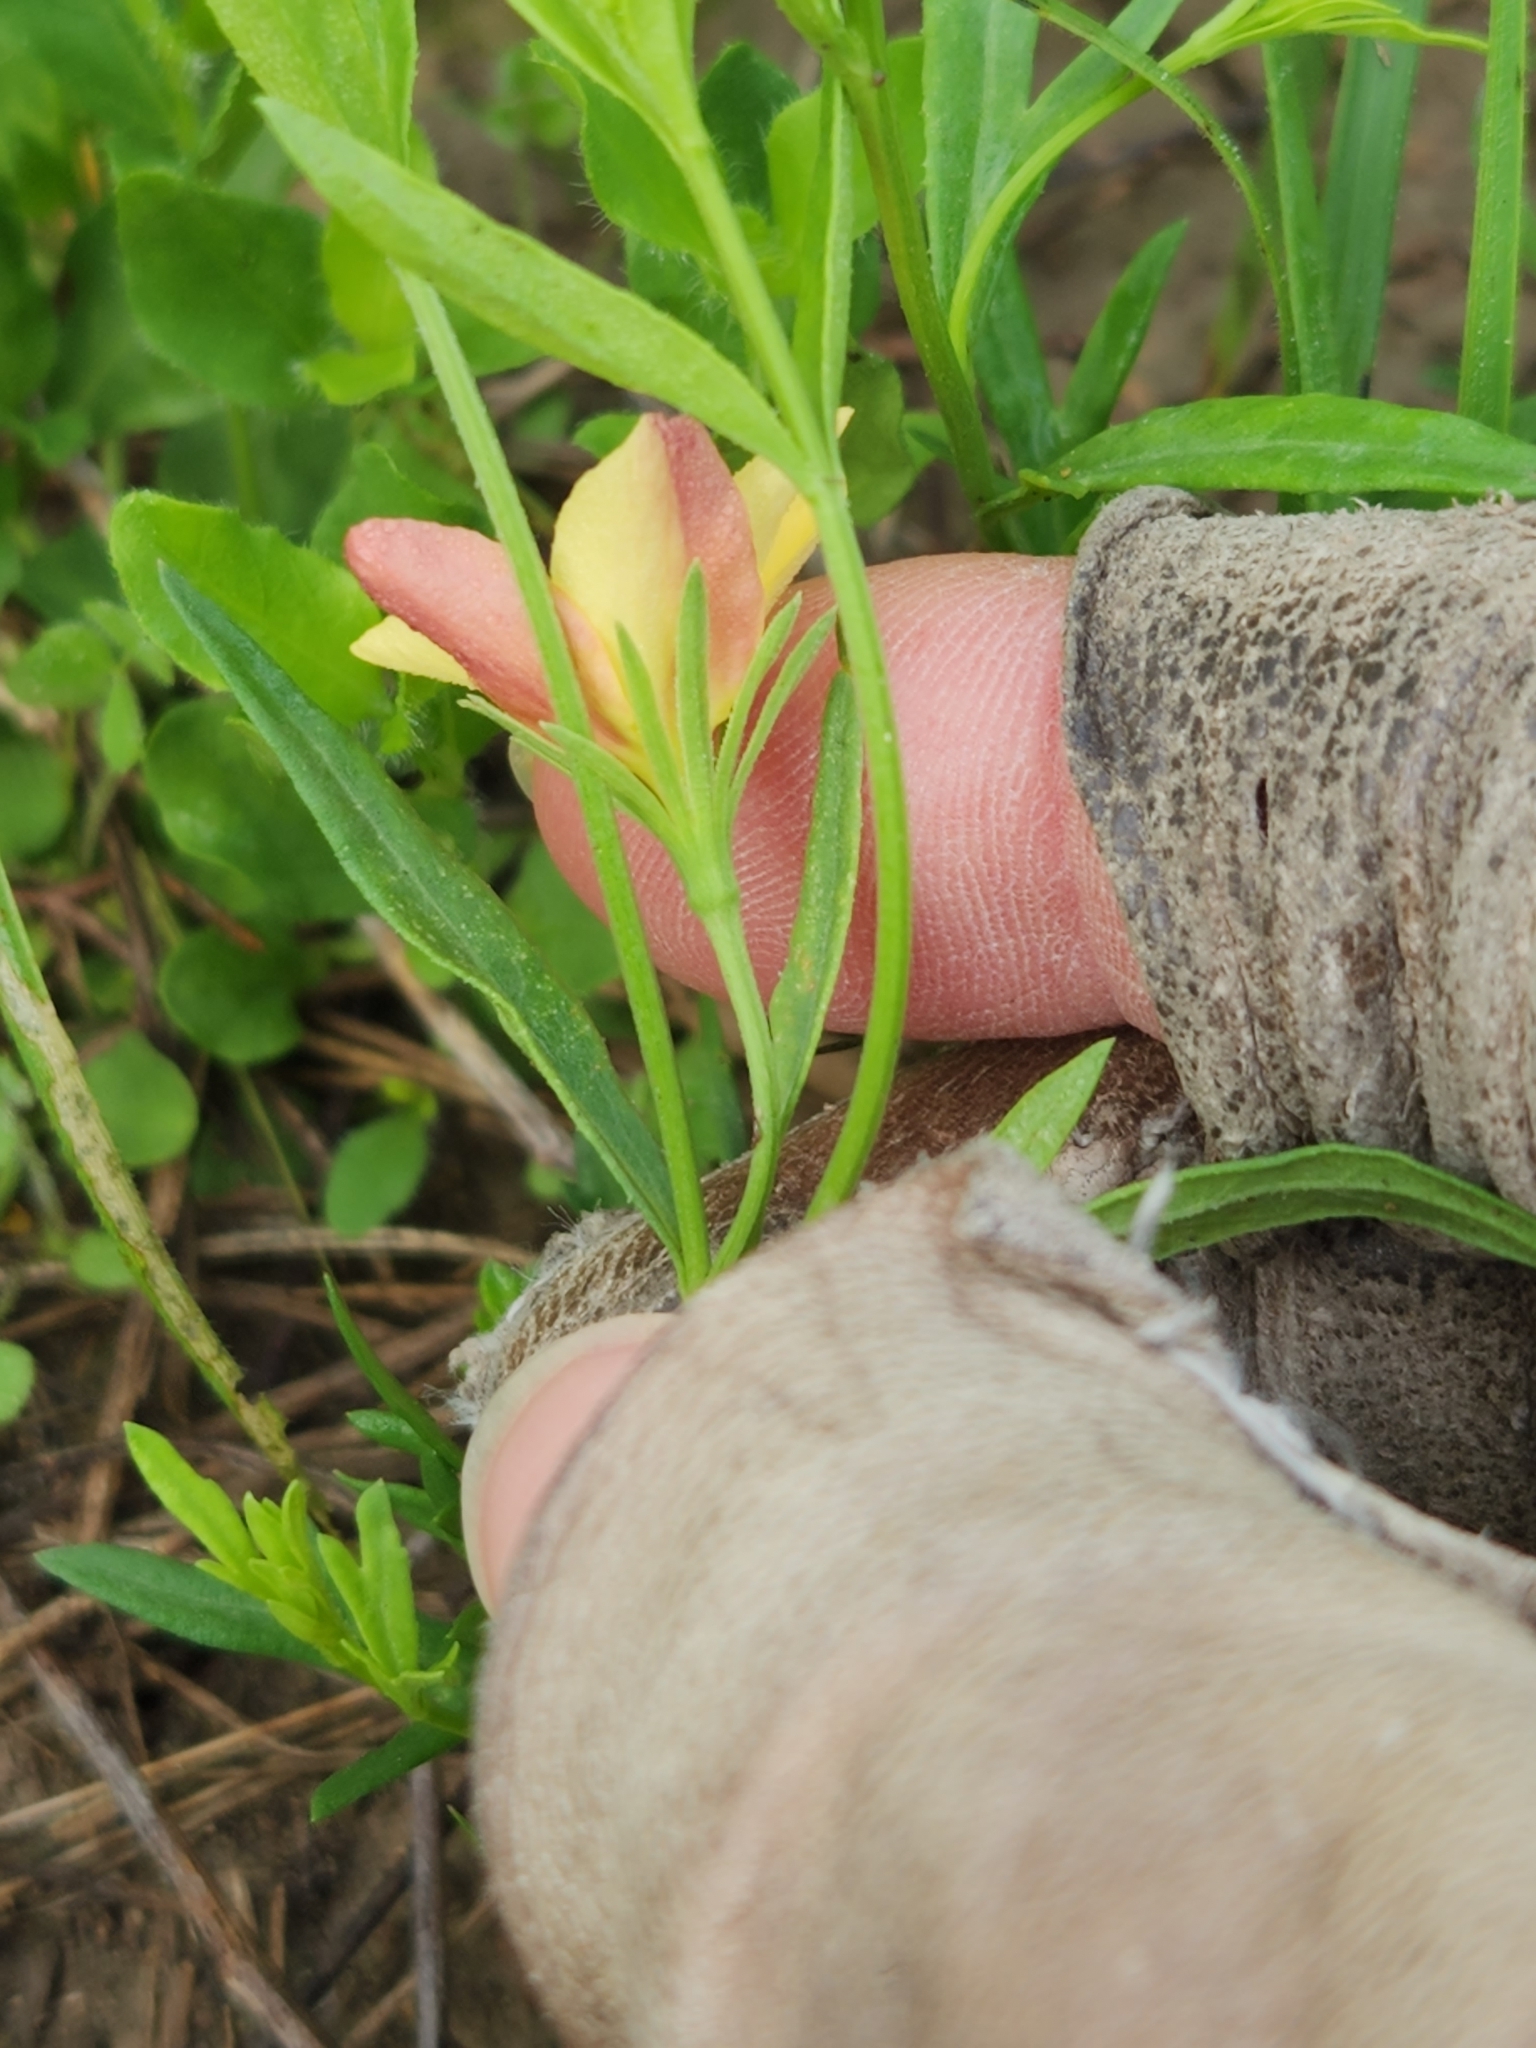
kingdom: Plantae
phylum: Tracheophyta
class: Magnoliopsida
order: Lamiales
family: Oleaceae
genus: Menodora
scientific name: Menodora heterophylla
